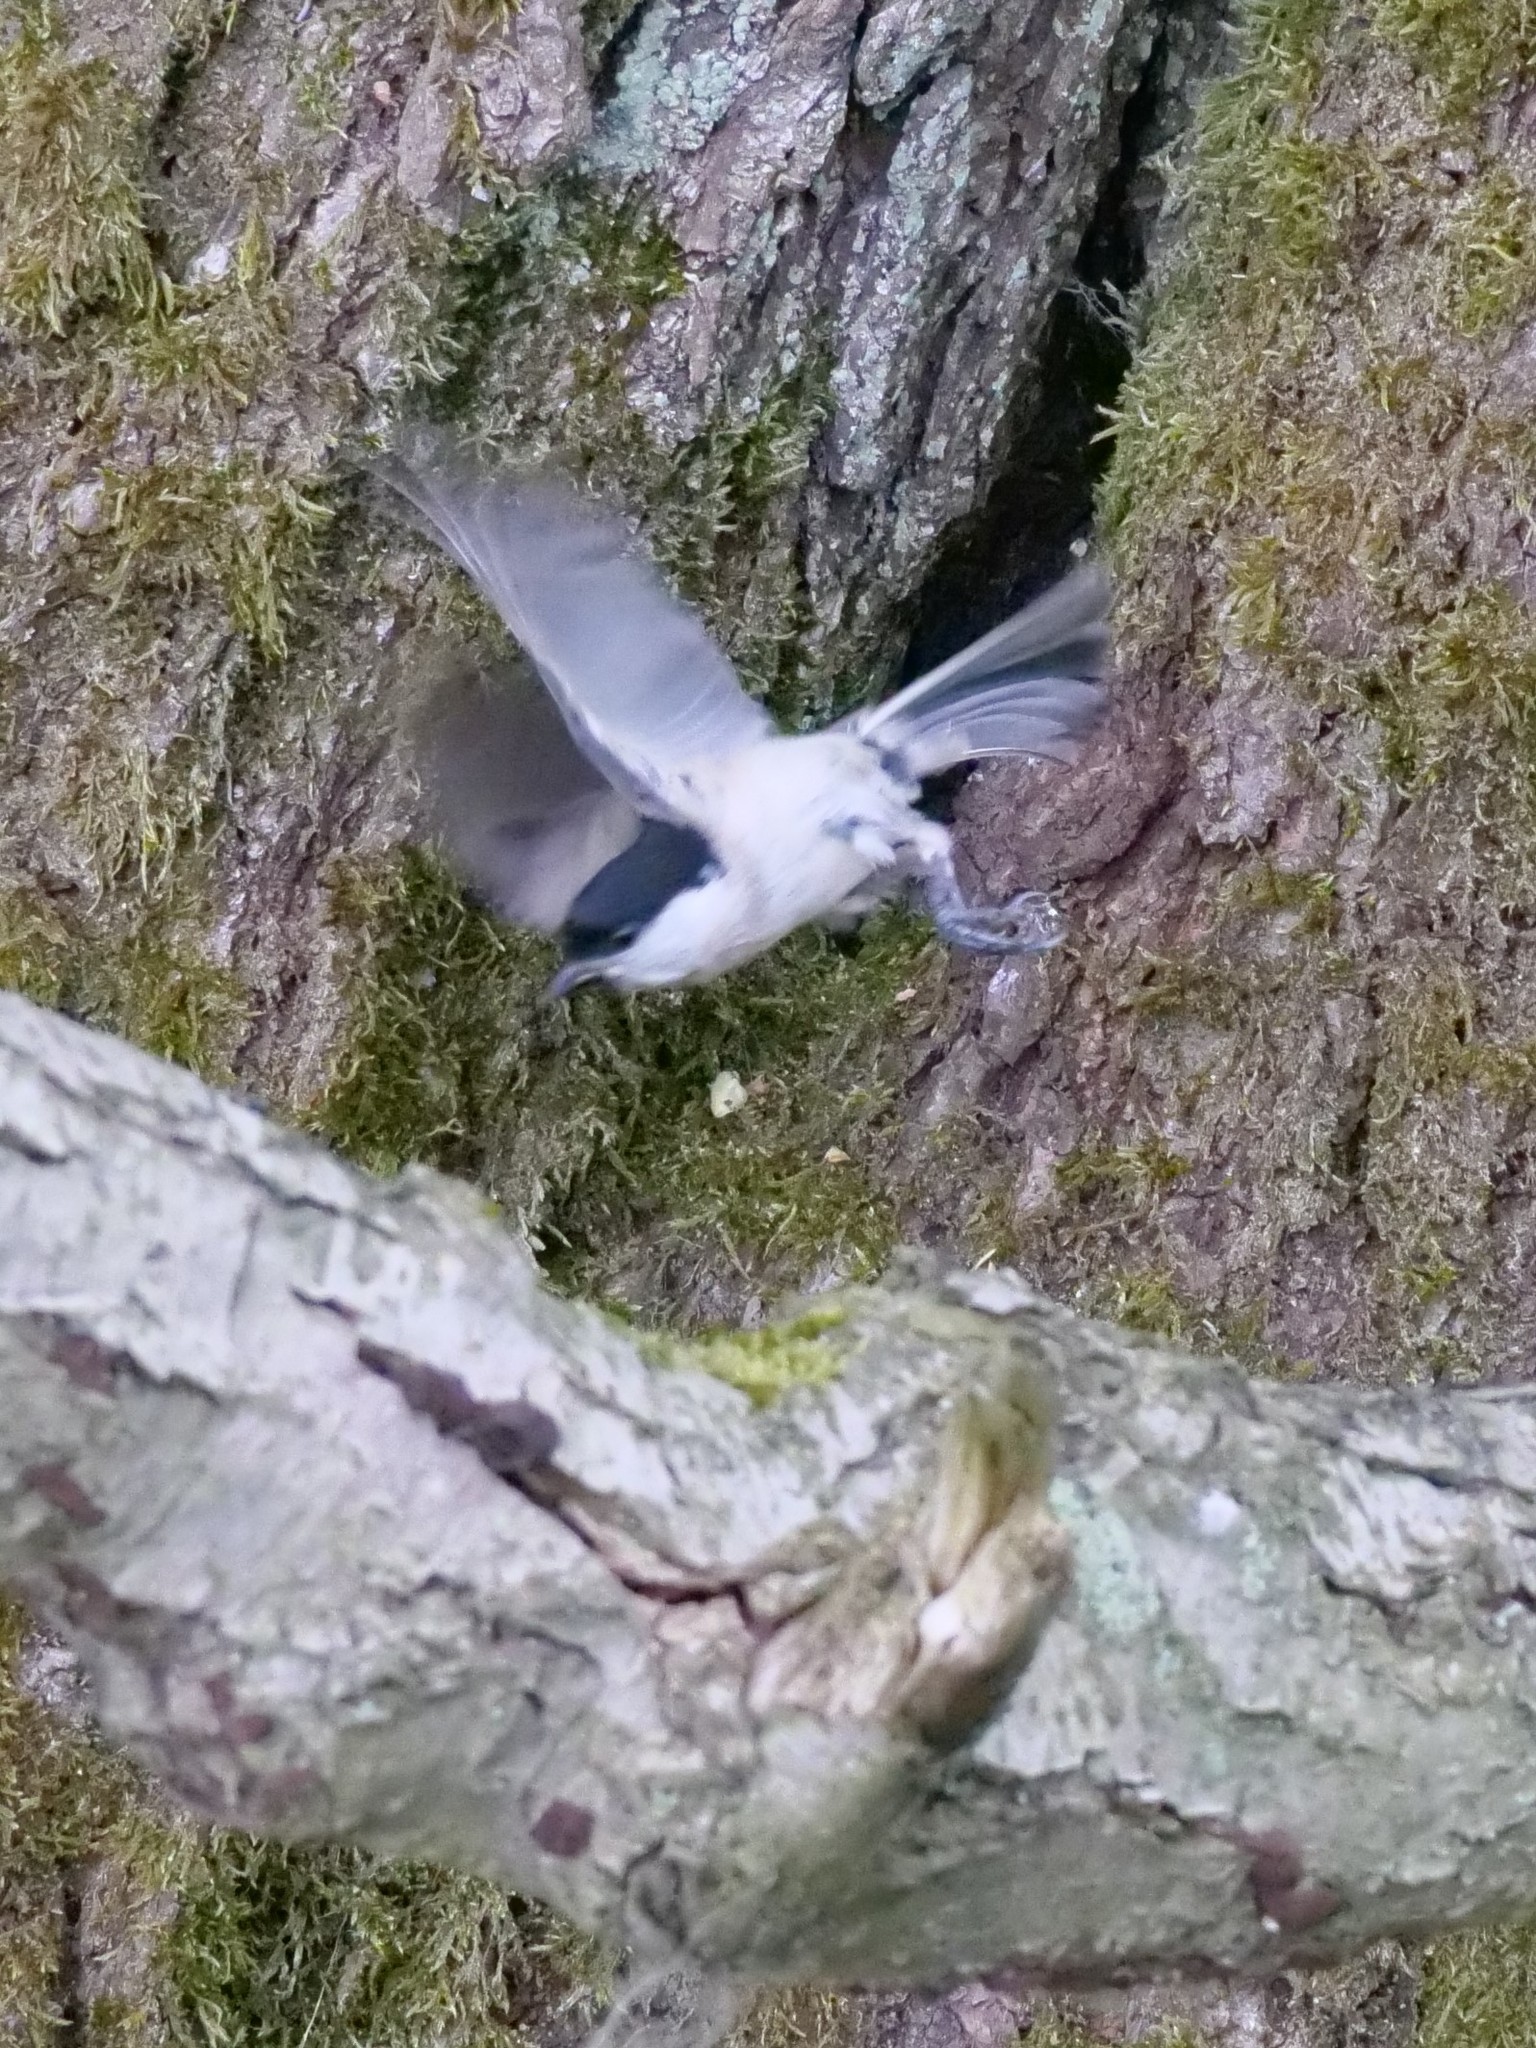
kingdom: Animalia
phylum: Chordata
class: Aves
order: Passeriformes
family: Paridae
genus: Poecile
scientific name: Poecile palustris
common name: Marsh tit
